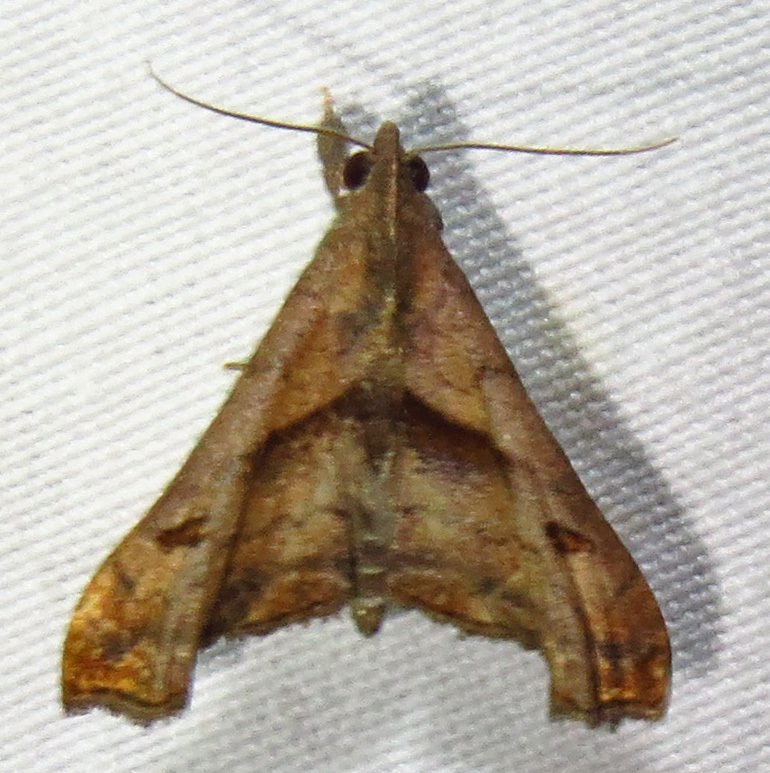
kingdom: Animalia
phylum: Arthropoda
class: Insecta
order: Lepidoptera
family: Erebidae
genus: Palthis
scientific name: Palthis angulalis
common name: Dark-spotted palthis moth
